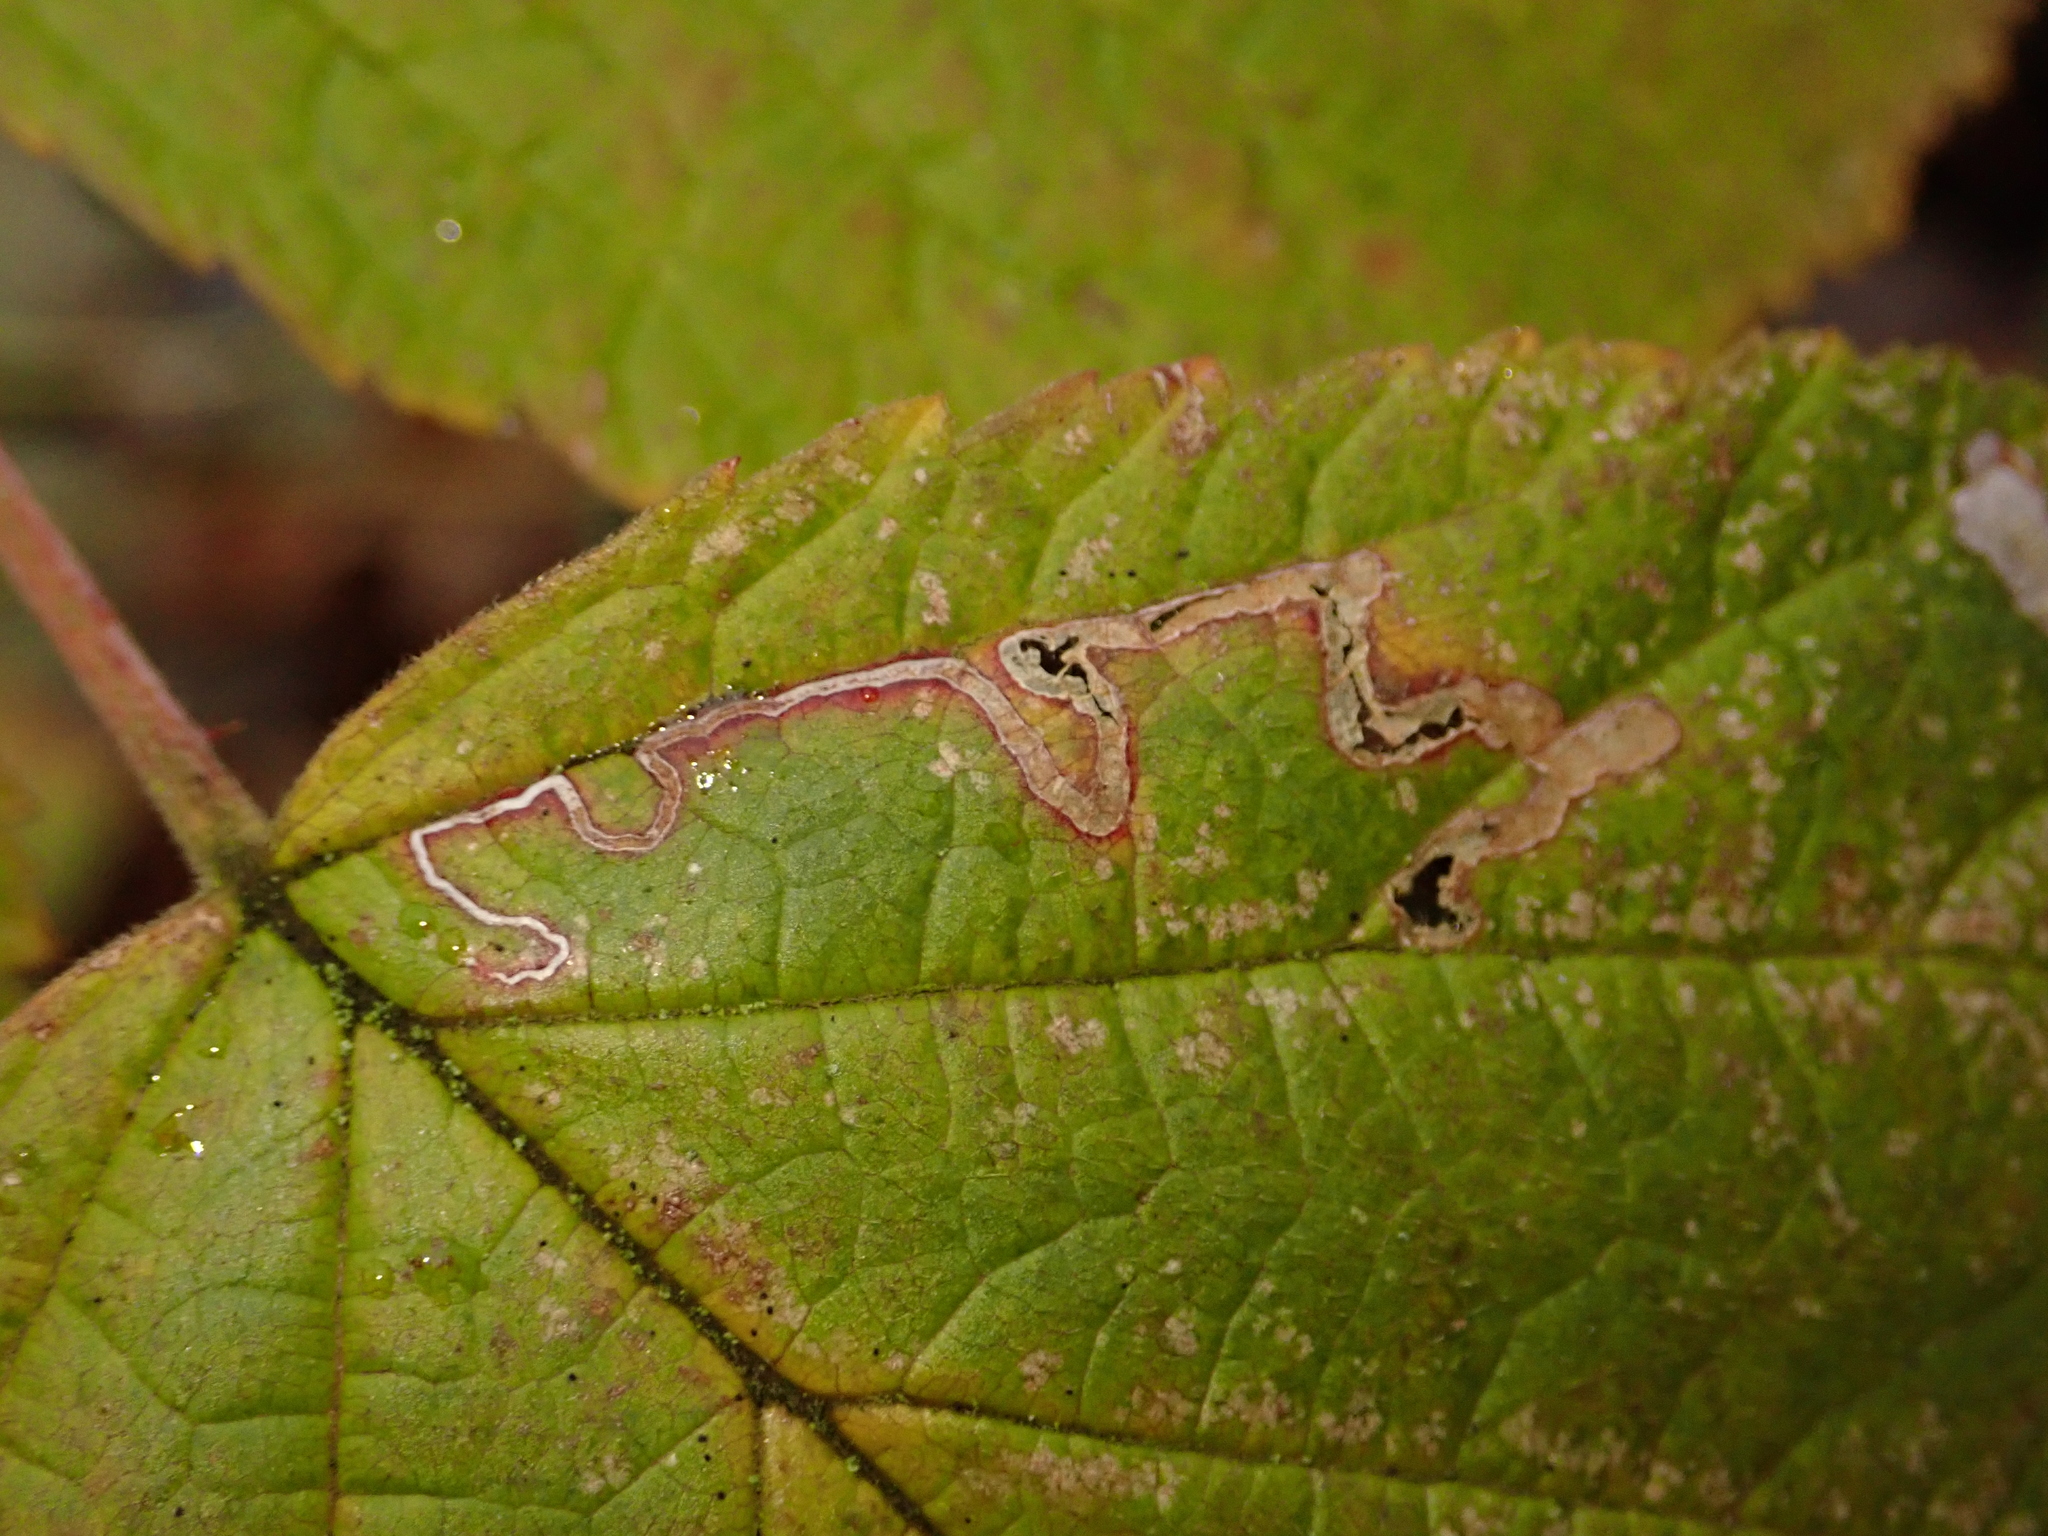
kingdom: Animalia
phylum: Arthropoda
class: Insecta
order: Lepidoptera
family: Nepticulidae
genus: Stigmella
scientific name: Stigmella aurella
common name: Golden pigmy
